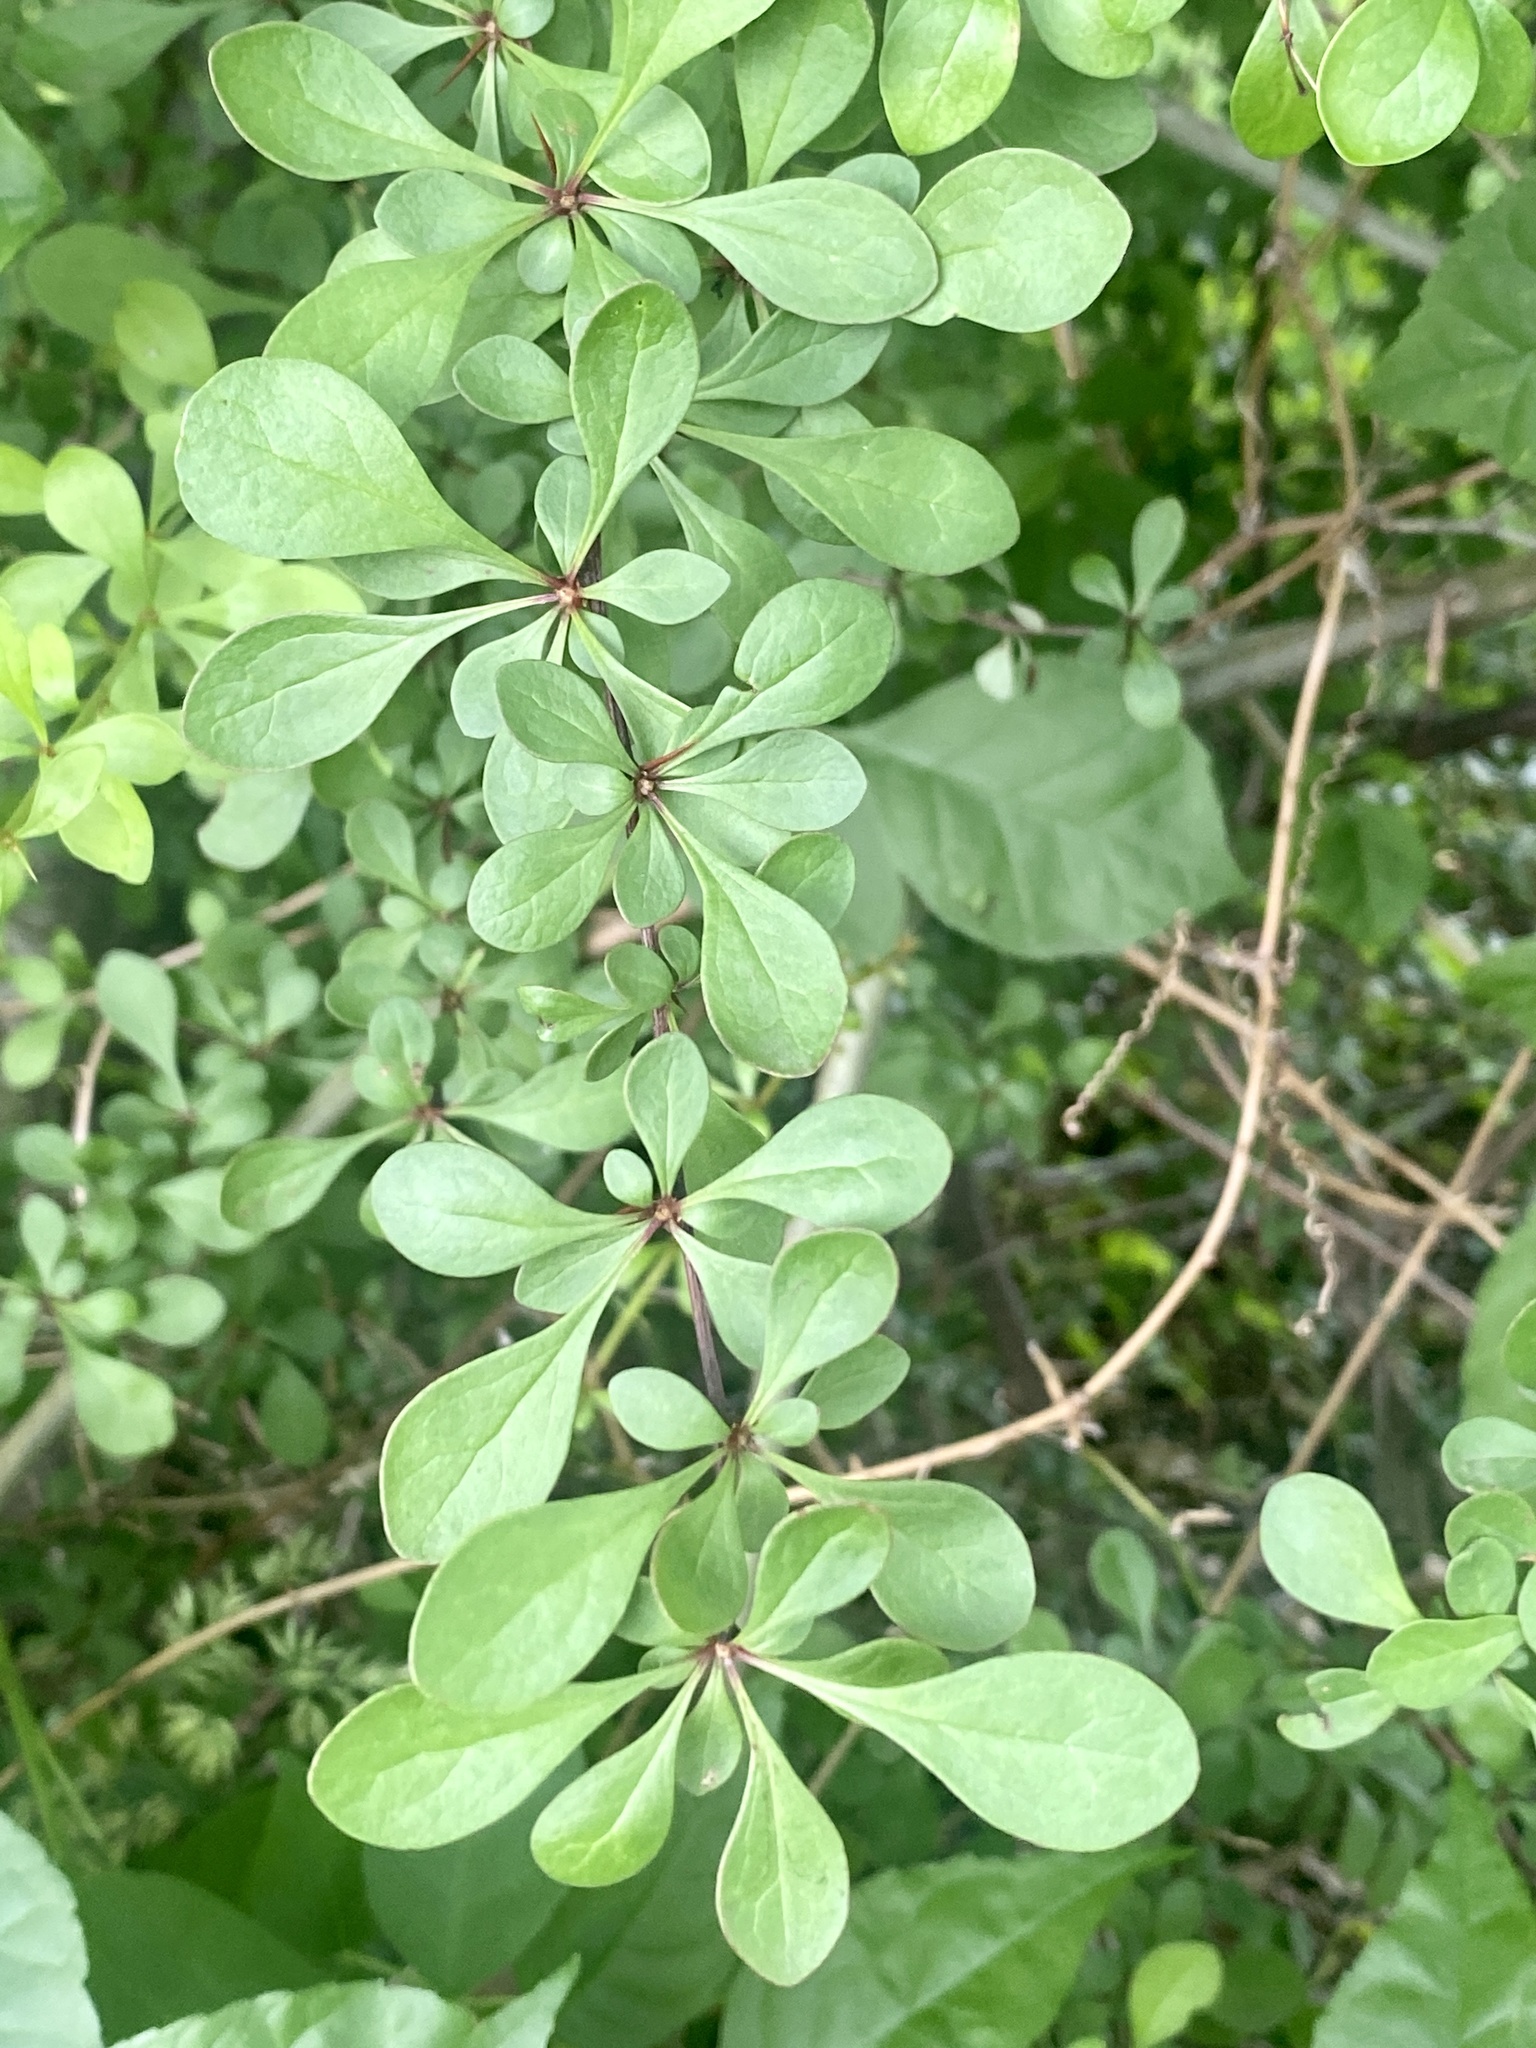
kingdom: Plantae
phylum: Tracheophyta
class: Magnoliopsida
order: Ranunculales
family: Berberidaceae
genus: Berberis
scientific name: Berberis thunbergii
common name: Japanese barberry
